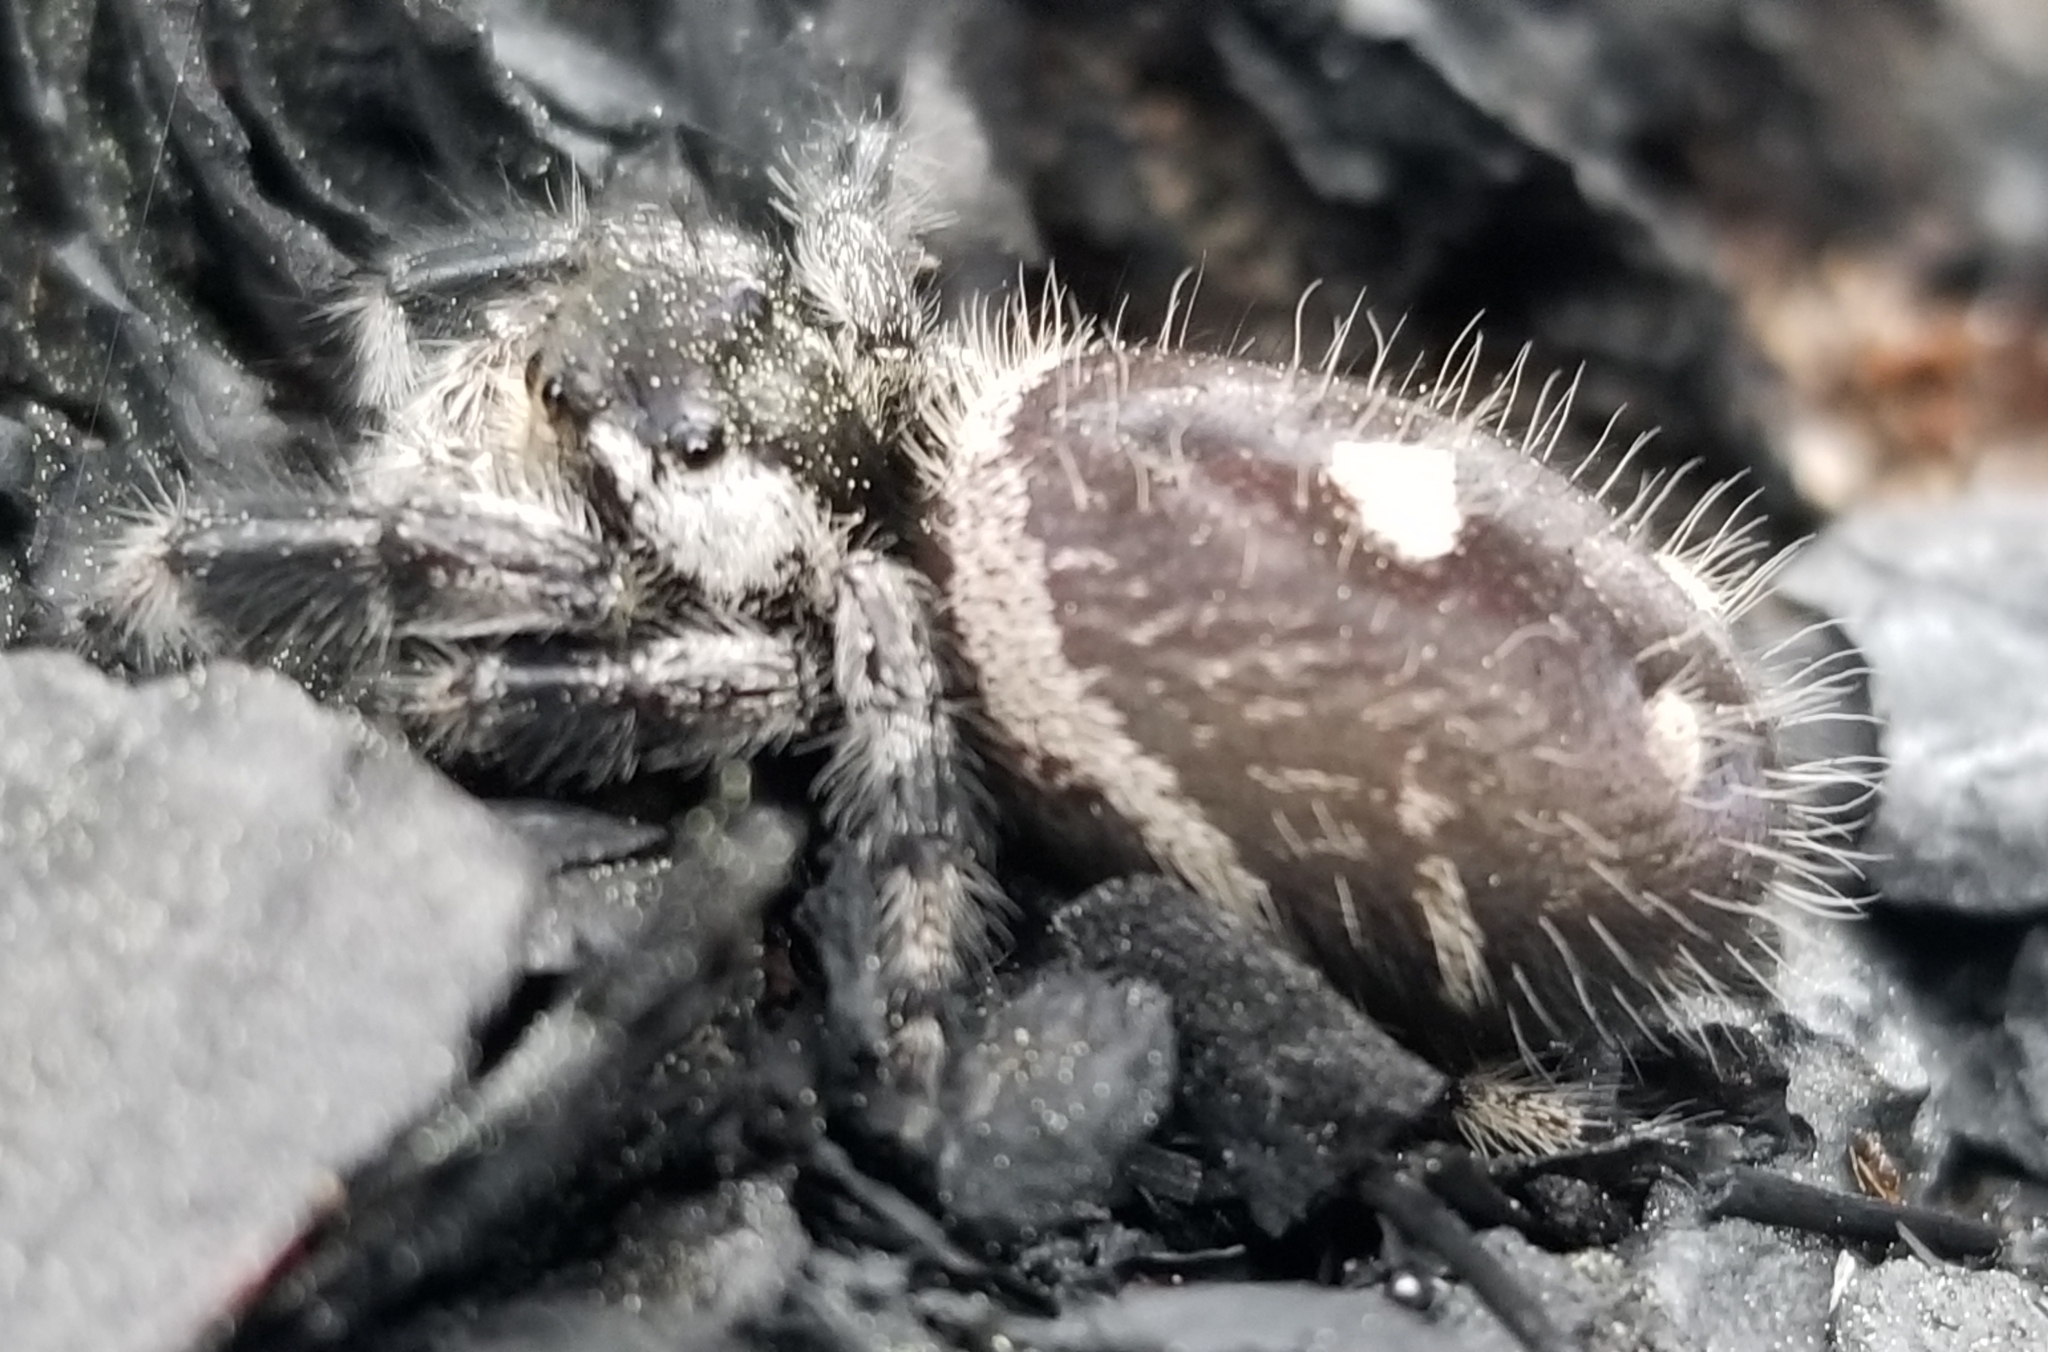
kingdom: Animalia
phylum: Arthropoda
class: Arachnida
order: Araneae
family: Salticidae
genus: Phidippus
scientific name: Phidippus regius
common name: Regal jumper
